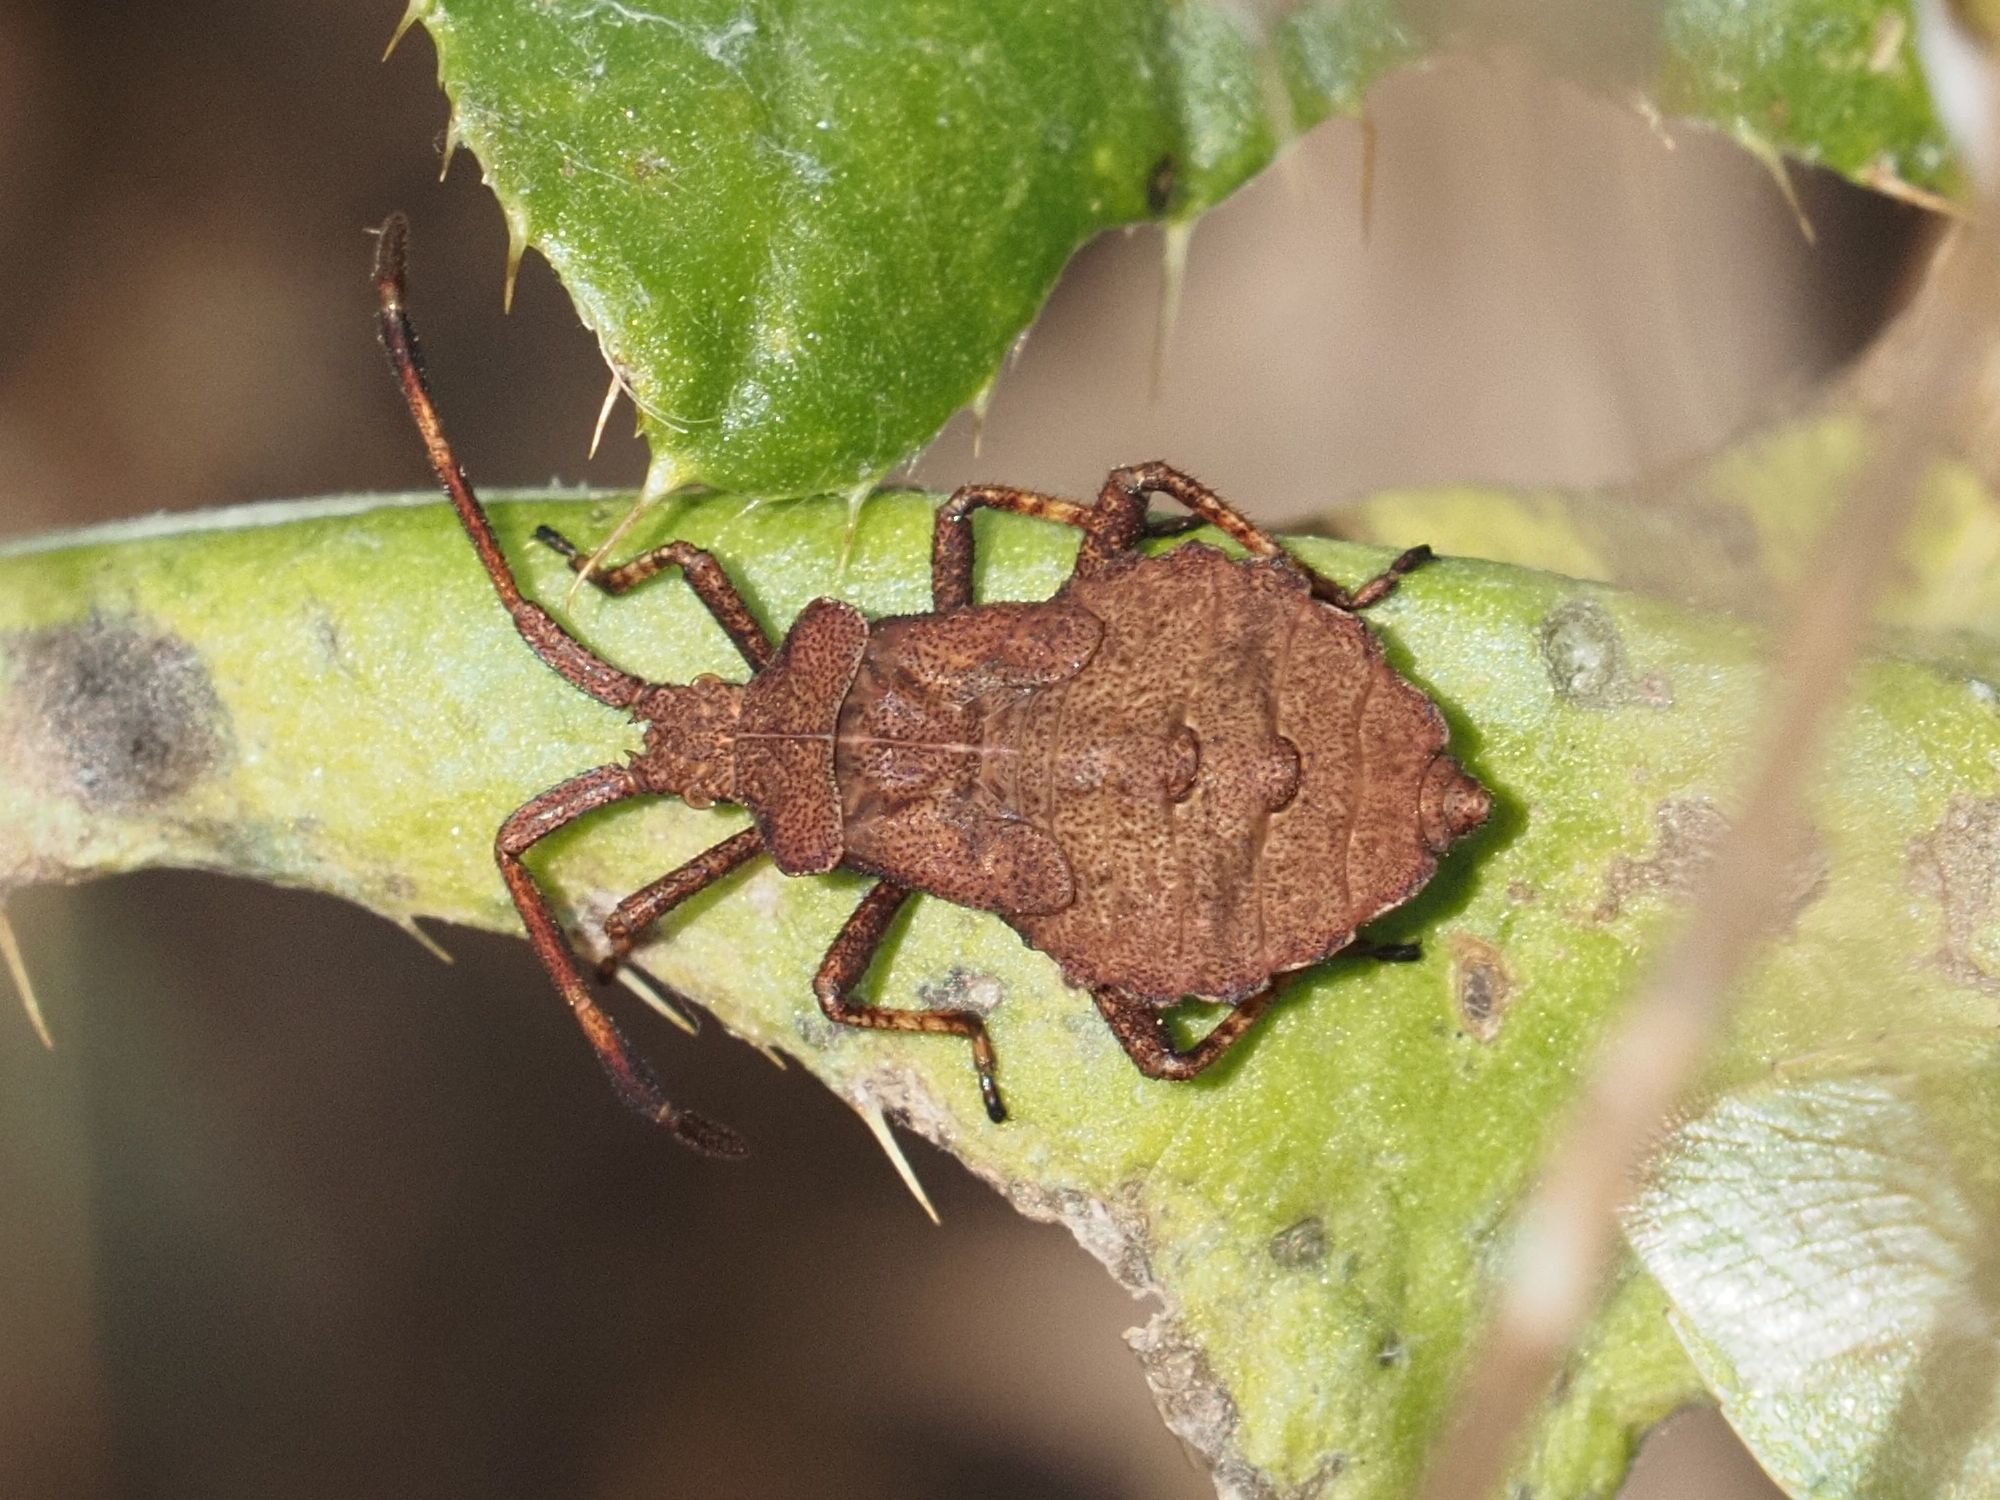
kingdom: Animalia
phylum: Arthropoda
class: Insecta
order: Hemiptera
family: Coreidae
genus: Coreus
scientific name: Coreus marginatus
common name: Dock bug
